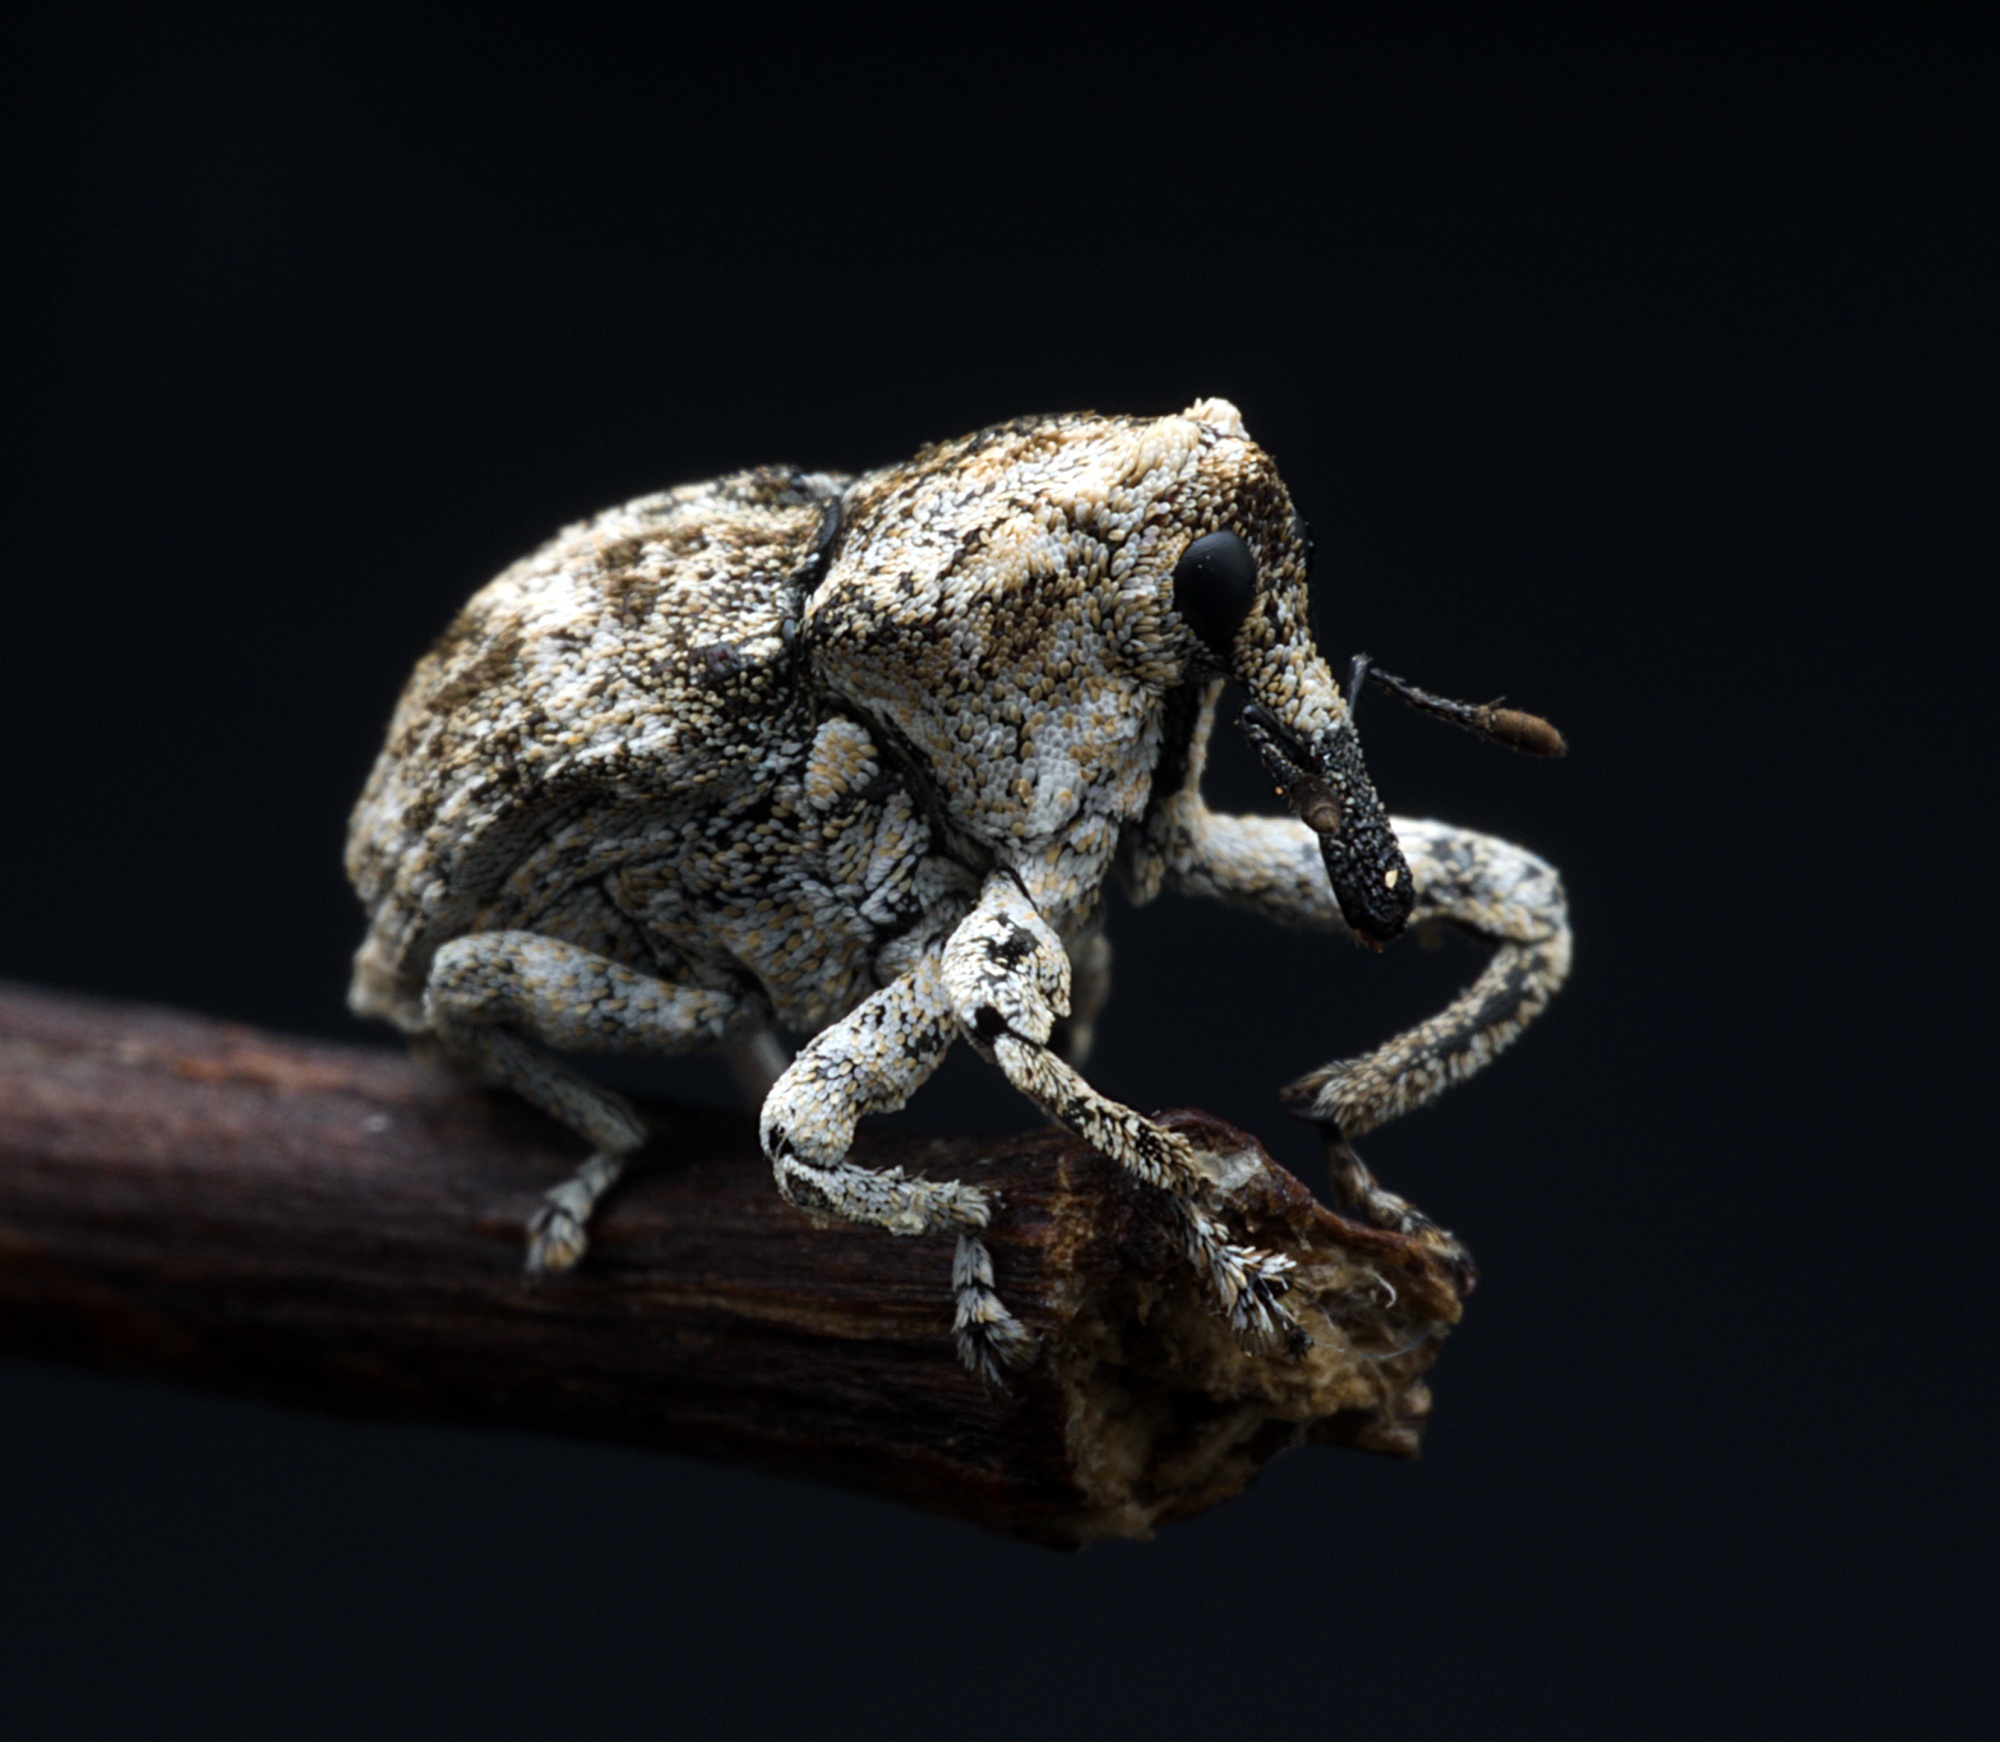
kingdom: Animalia
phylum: Arthropoda
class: Insecta
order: Coleoptera
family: Curculionidae
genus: Euthyrhinus
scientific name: Euthyrhinus squamiger
